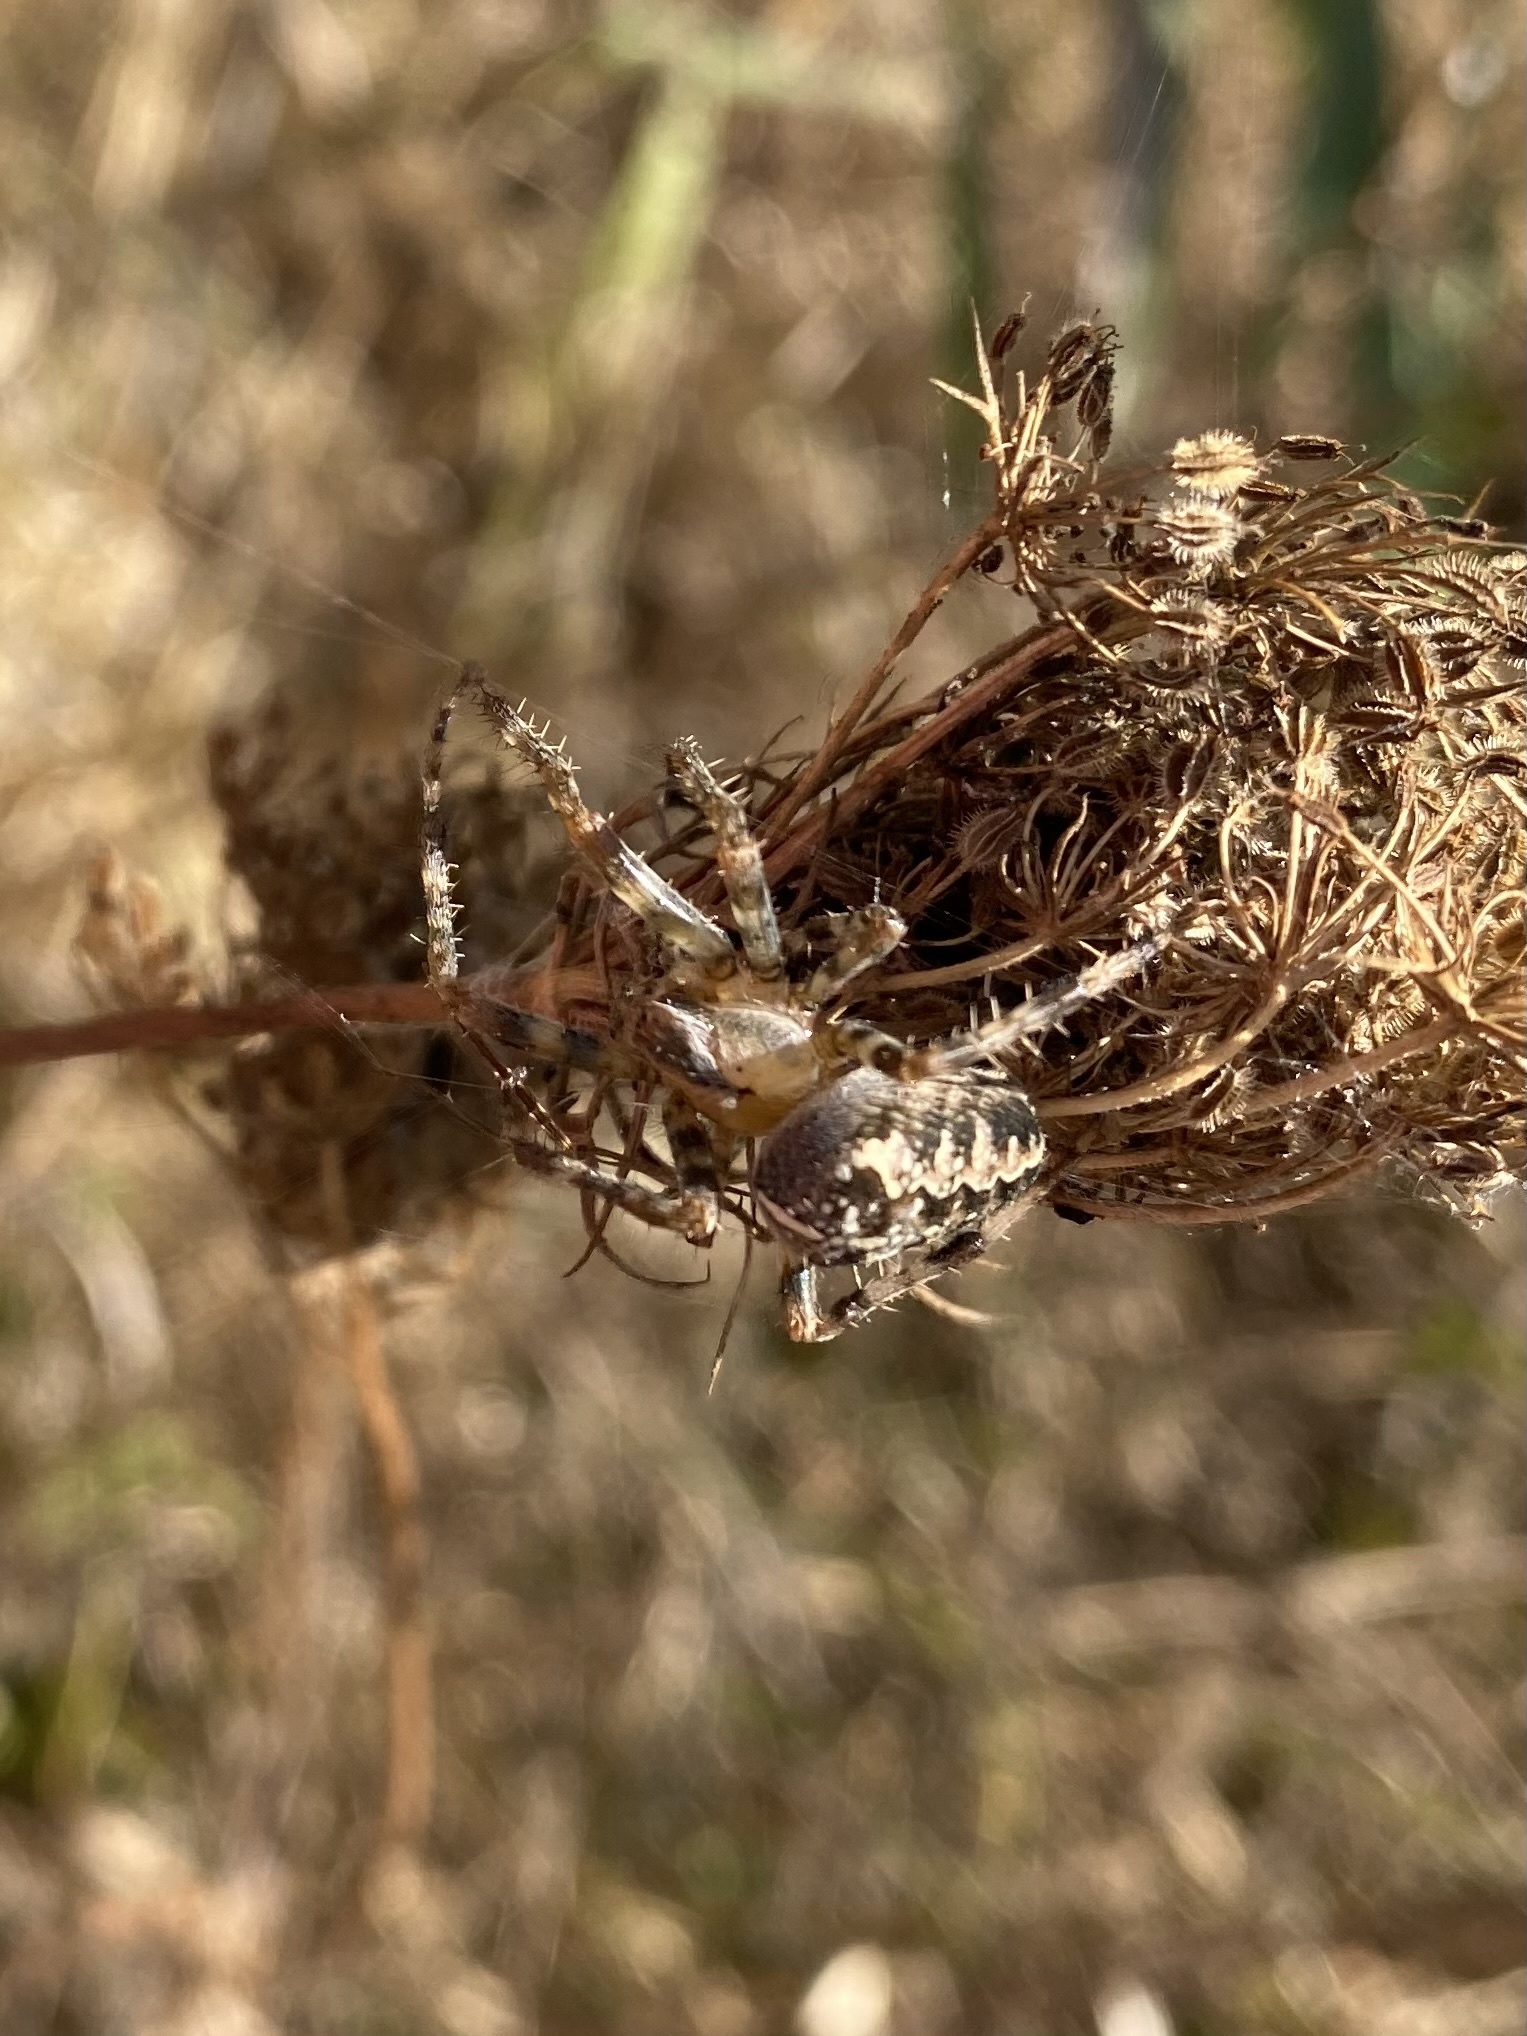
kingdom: Animalia
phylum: Arthropoda
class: Arachnida
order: Araneae
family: Araneidae
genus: Araneus
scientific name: Araneus diadematus
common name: Cross orbweaver
